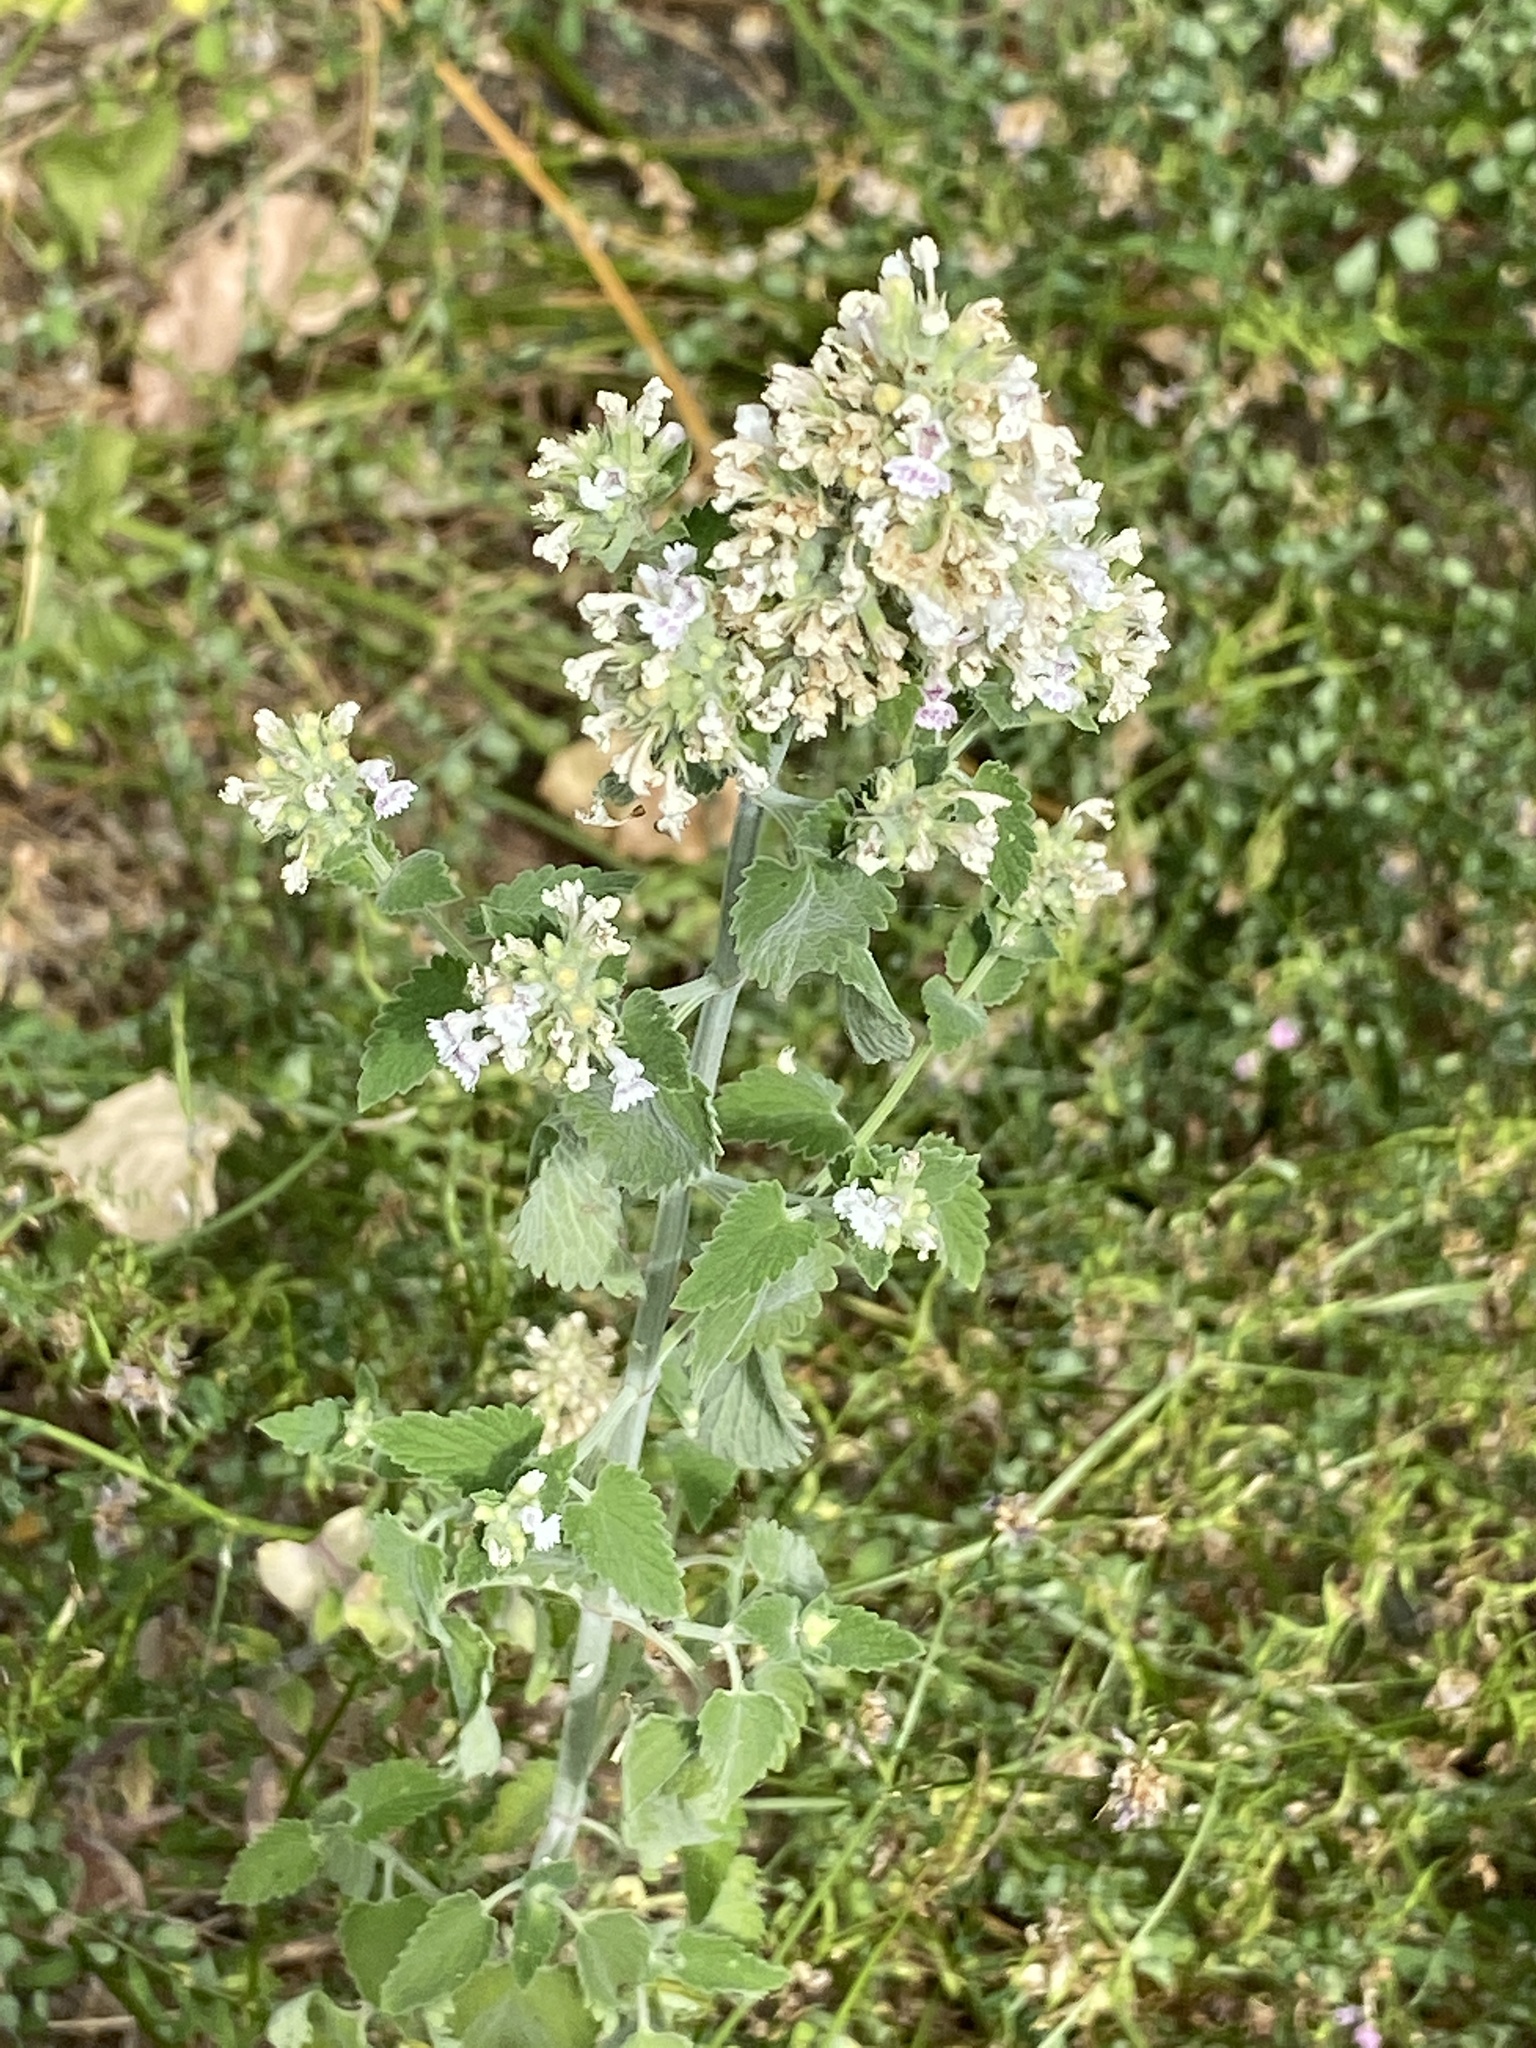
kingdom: Plantae
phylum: Tracheophyta
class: Magnoliopsida
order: Lamiales
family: Lamiaceae
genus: Nepeta
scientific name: Nepeta cataria
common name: Catnip
